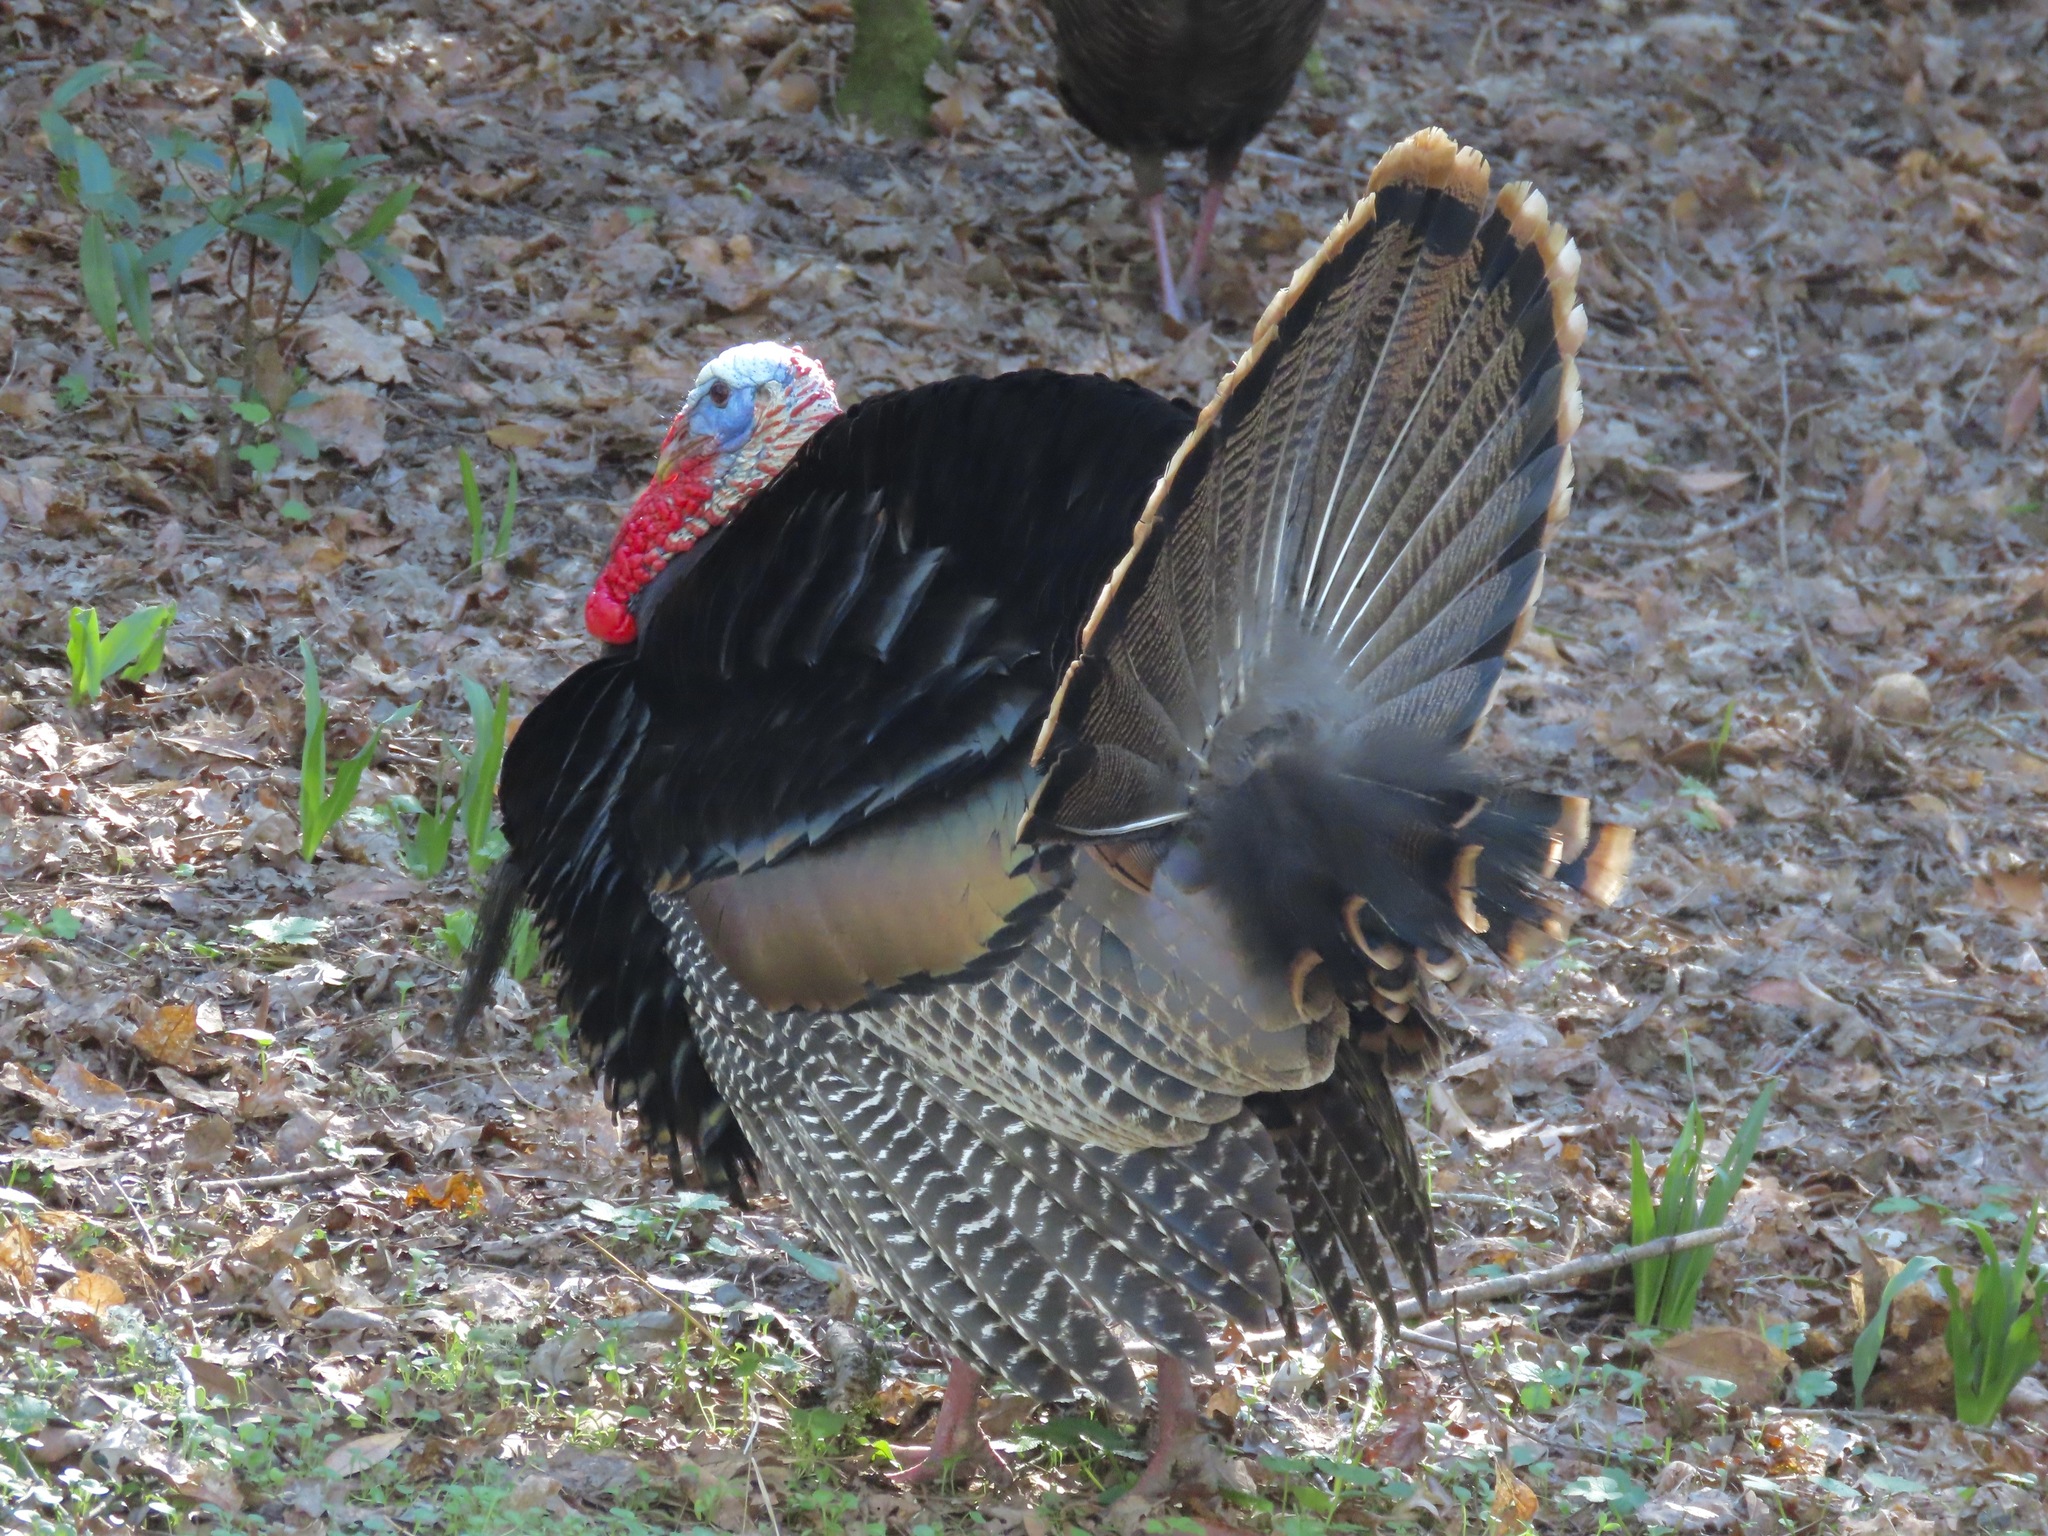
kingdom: Animalia
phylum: Chordata
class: Aves
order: Galliformes
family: Phasianidae
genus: Meleagris
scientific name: Meleagris gallopavo
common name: Wild turkey
